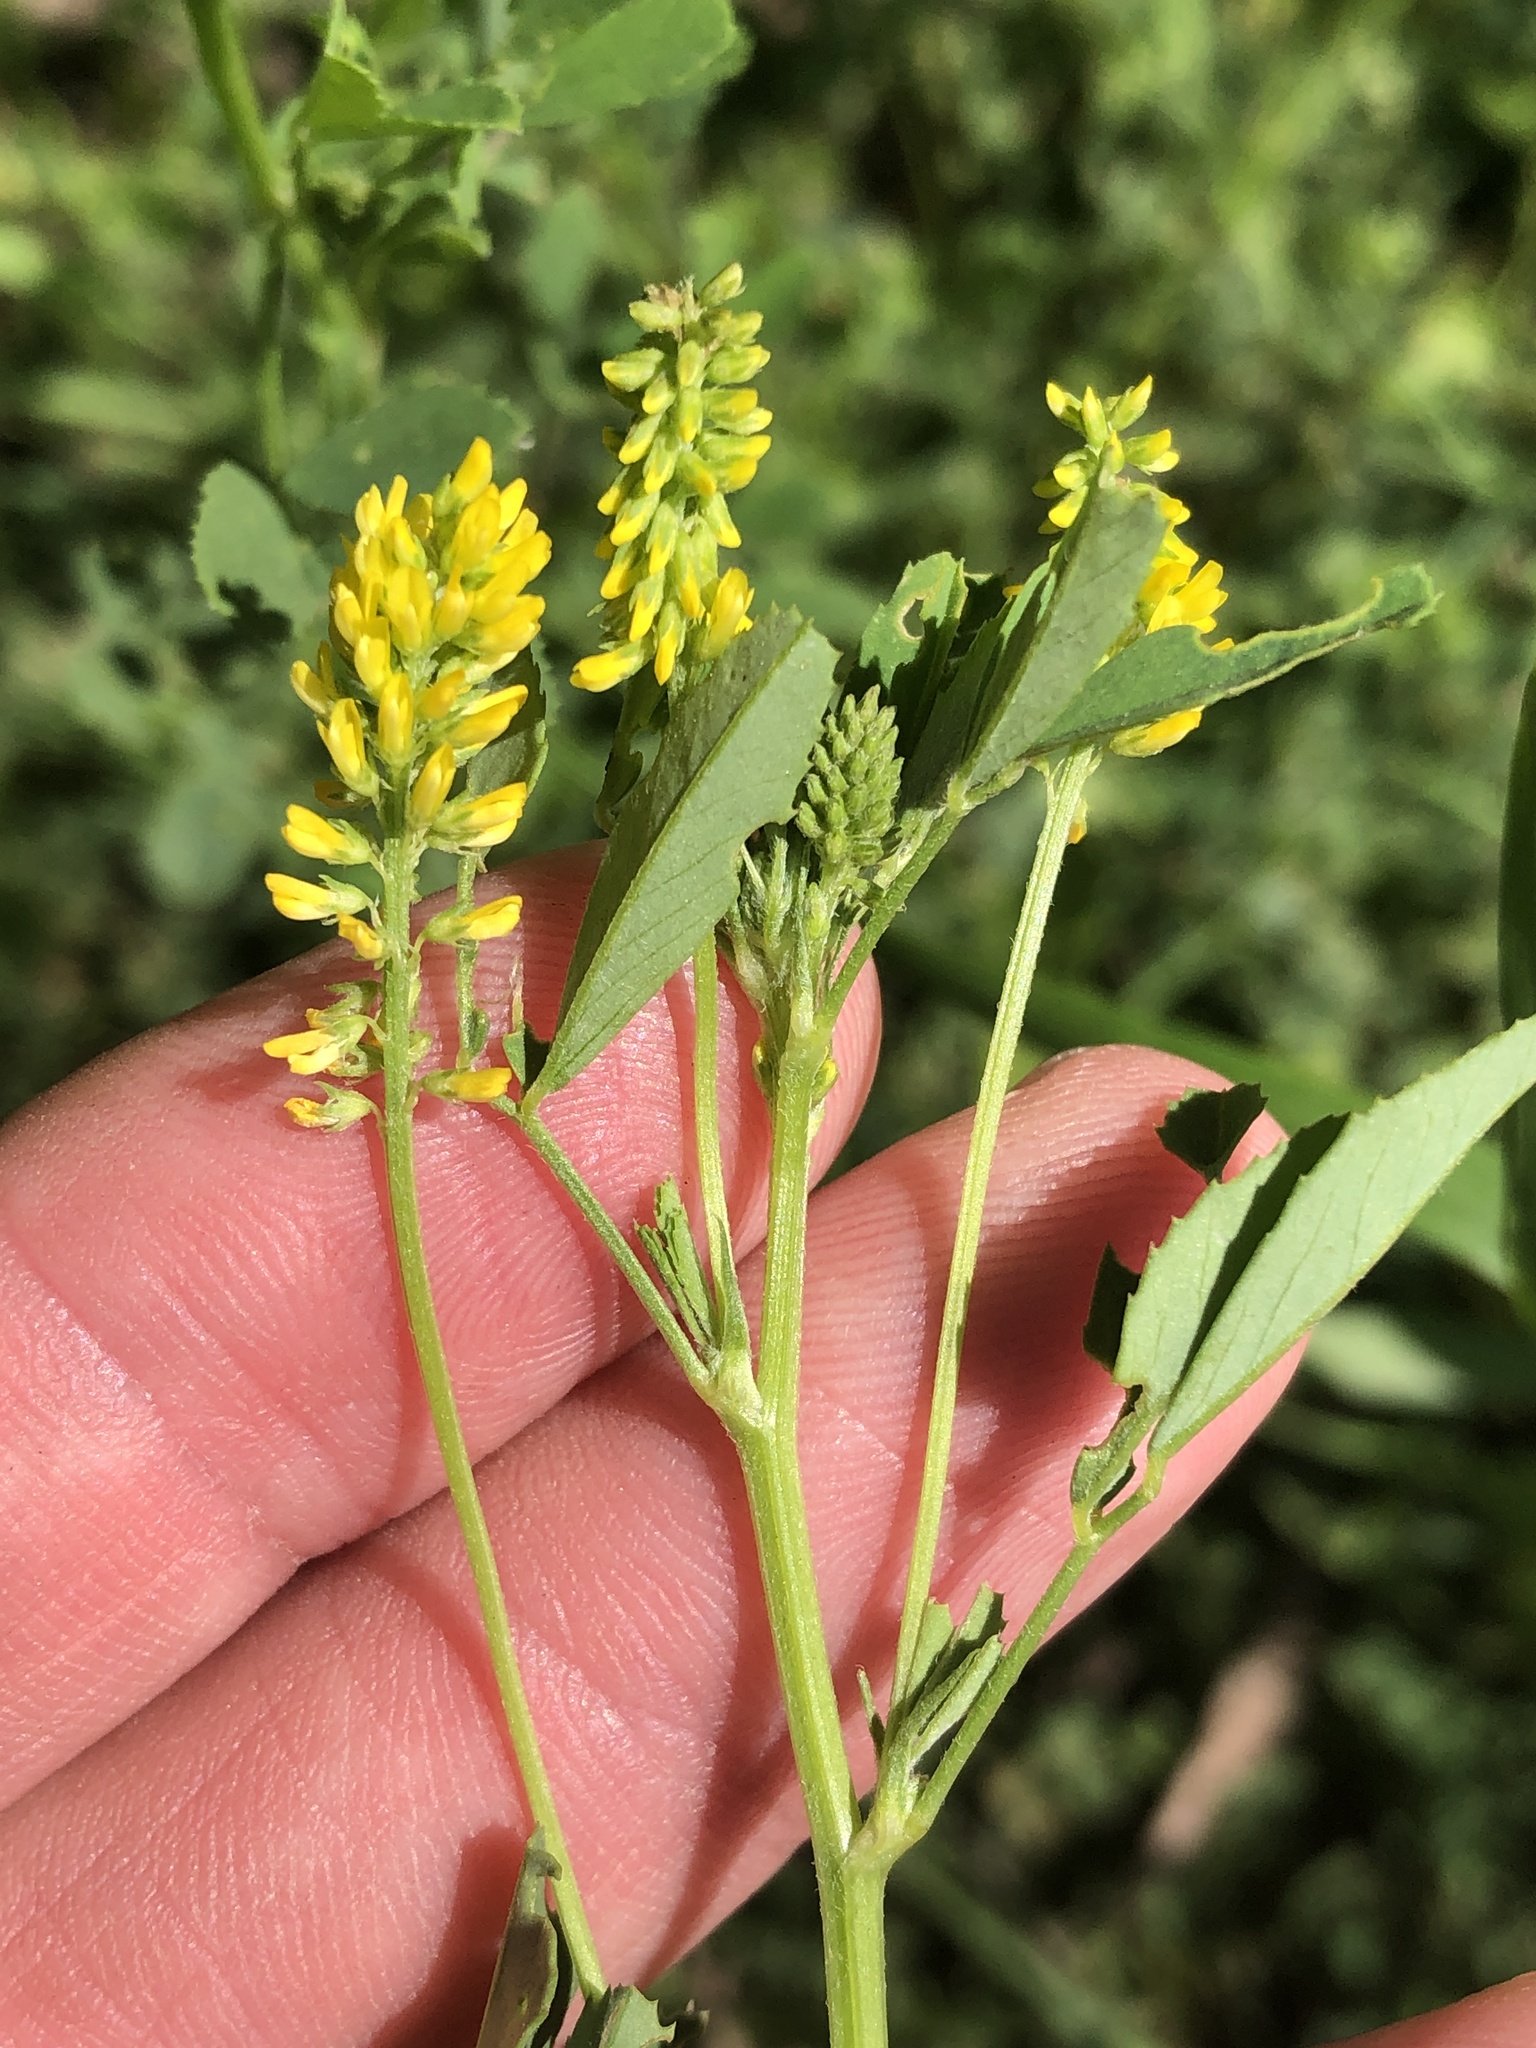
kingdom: Plantae
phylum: Tracheophyta
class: Magnoliopsida
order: Fabales
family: Fabaceae
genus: Melilotus
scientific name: Melilotus indicus
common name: Small melilot
